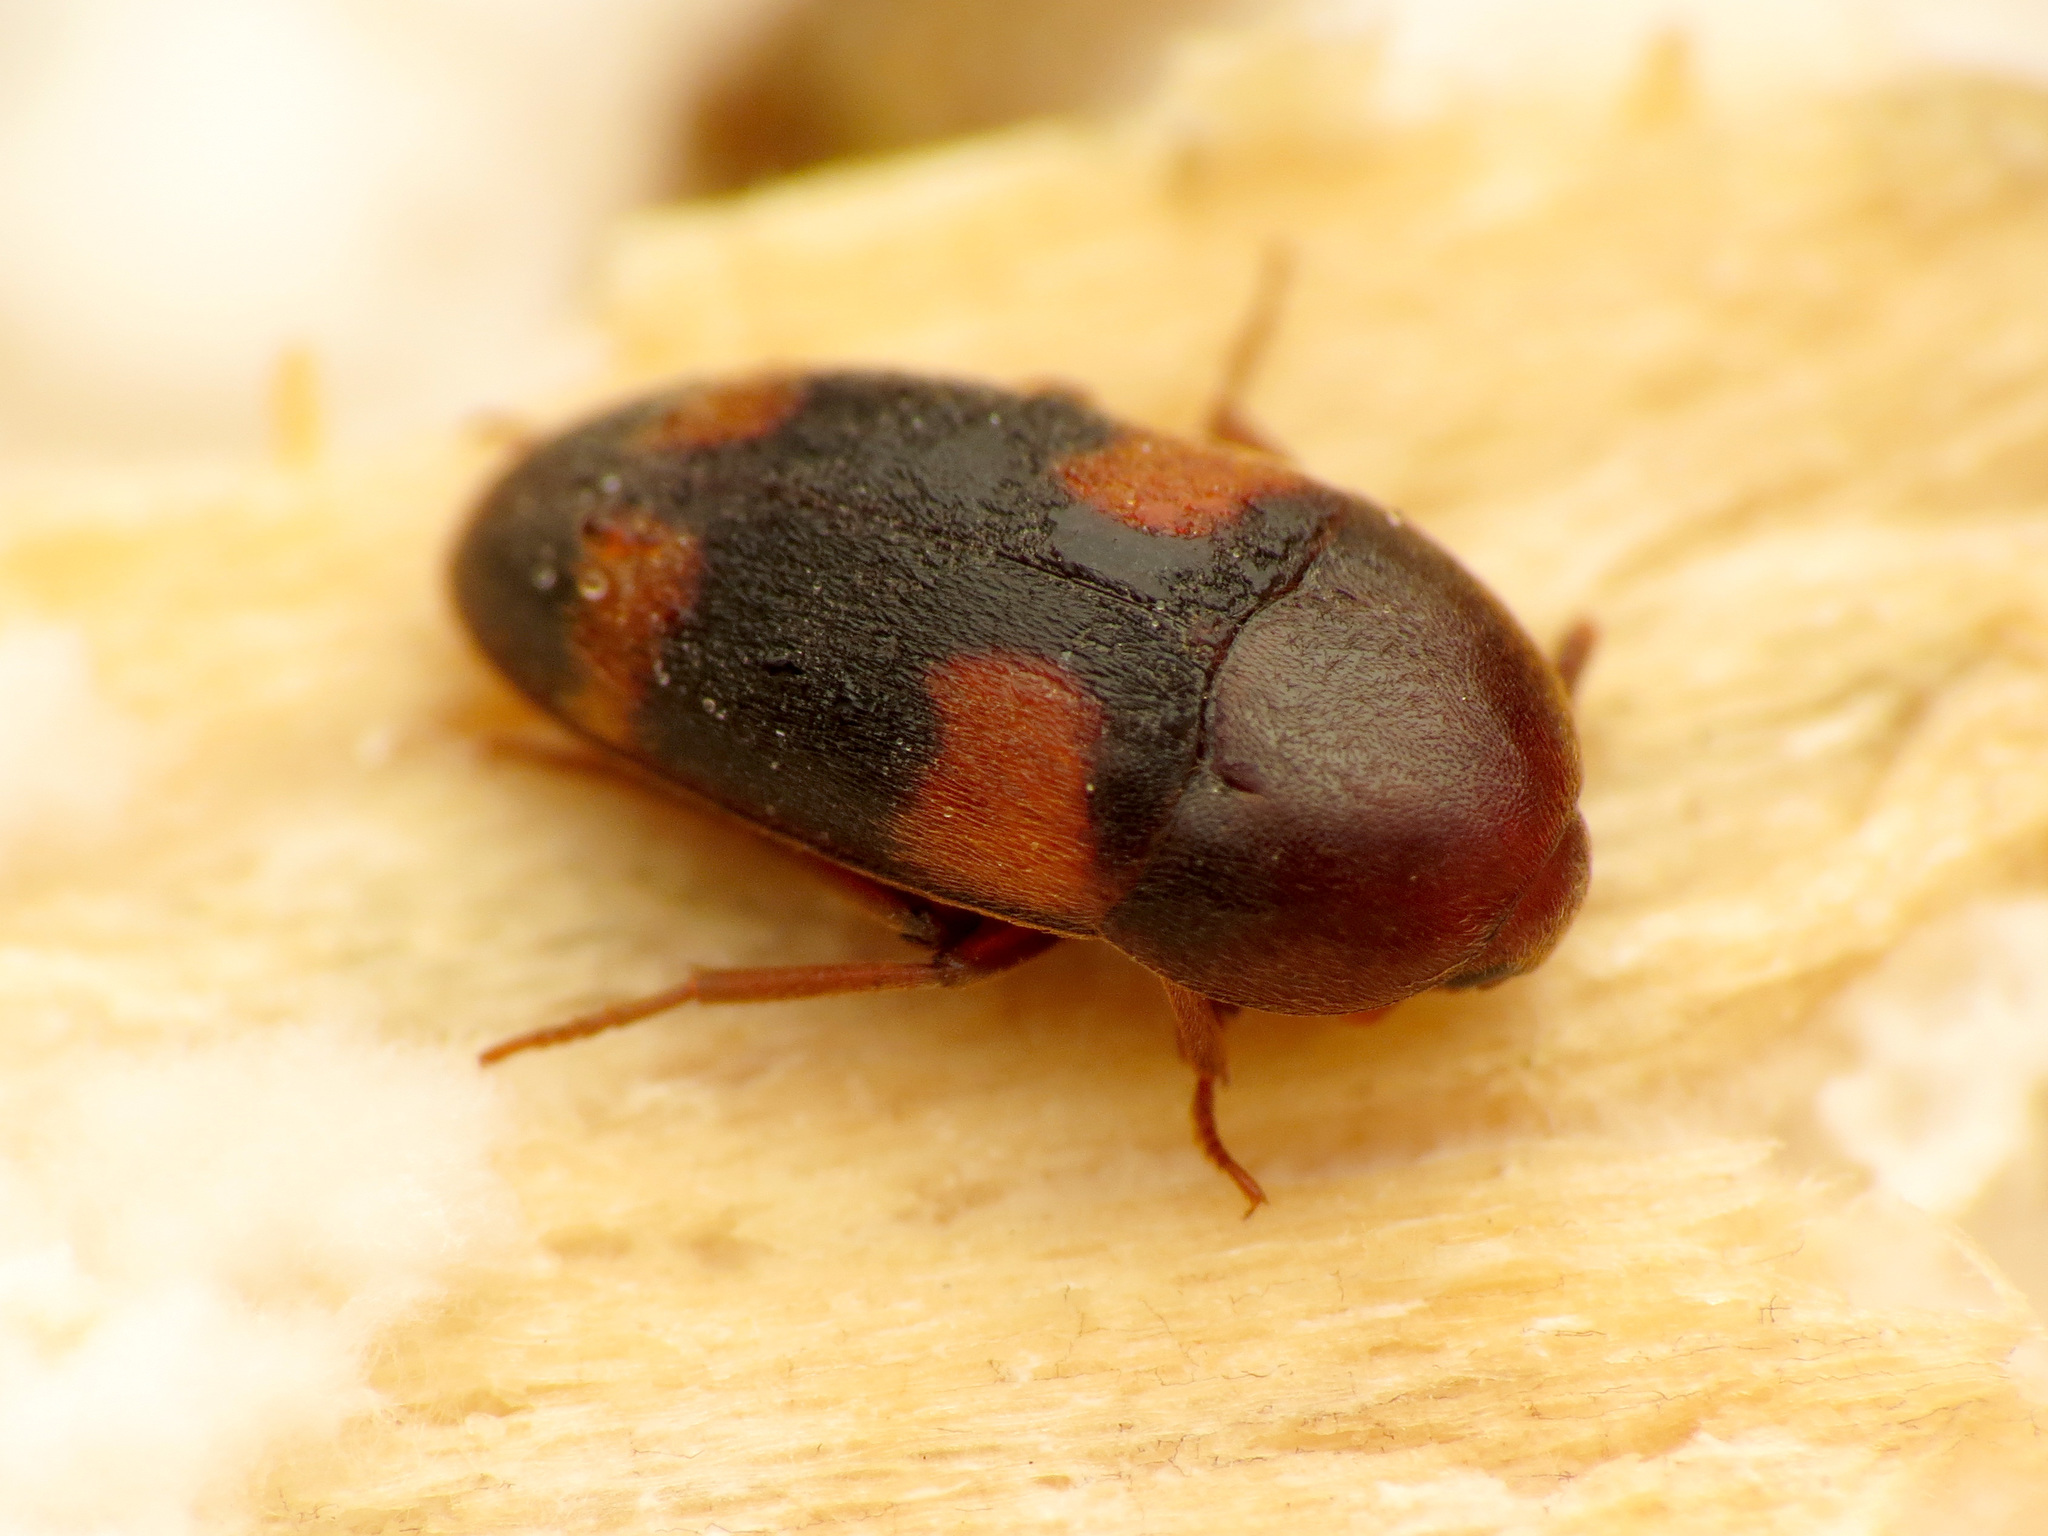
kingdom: Animalia
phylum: Arthropoda
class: Insecta
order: Coleoptera
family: Tetratomidae
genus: Holostrophus
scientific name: Holostrophus bifasciatus
